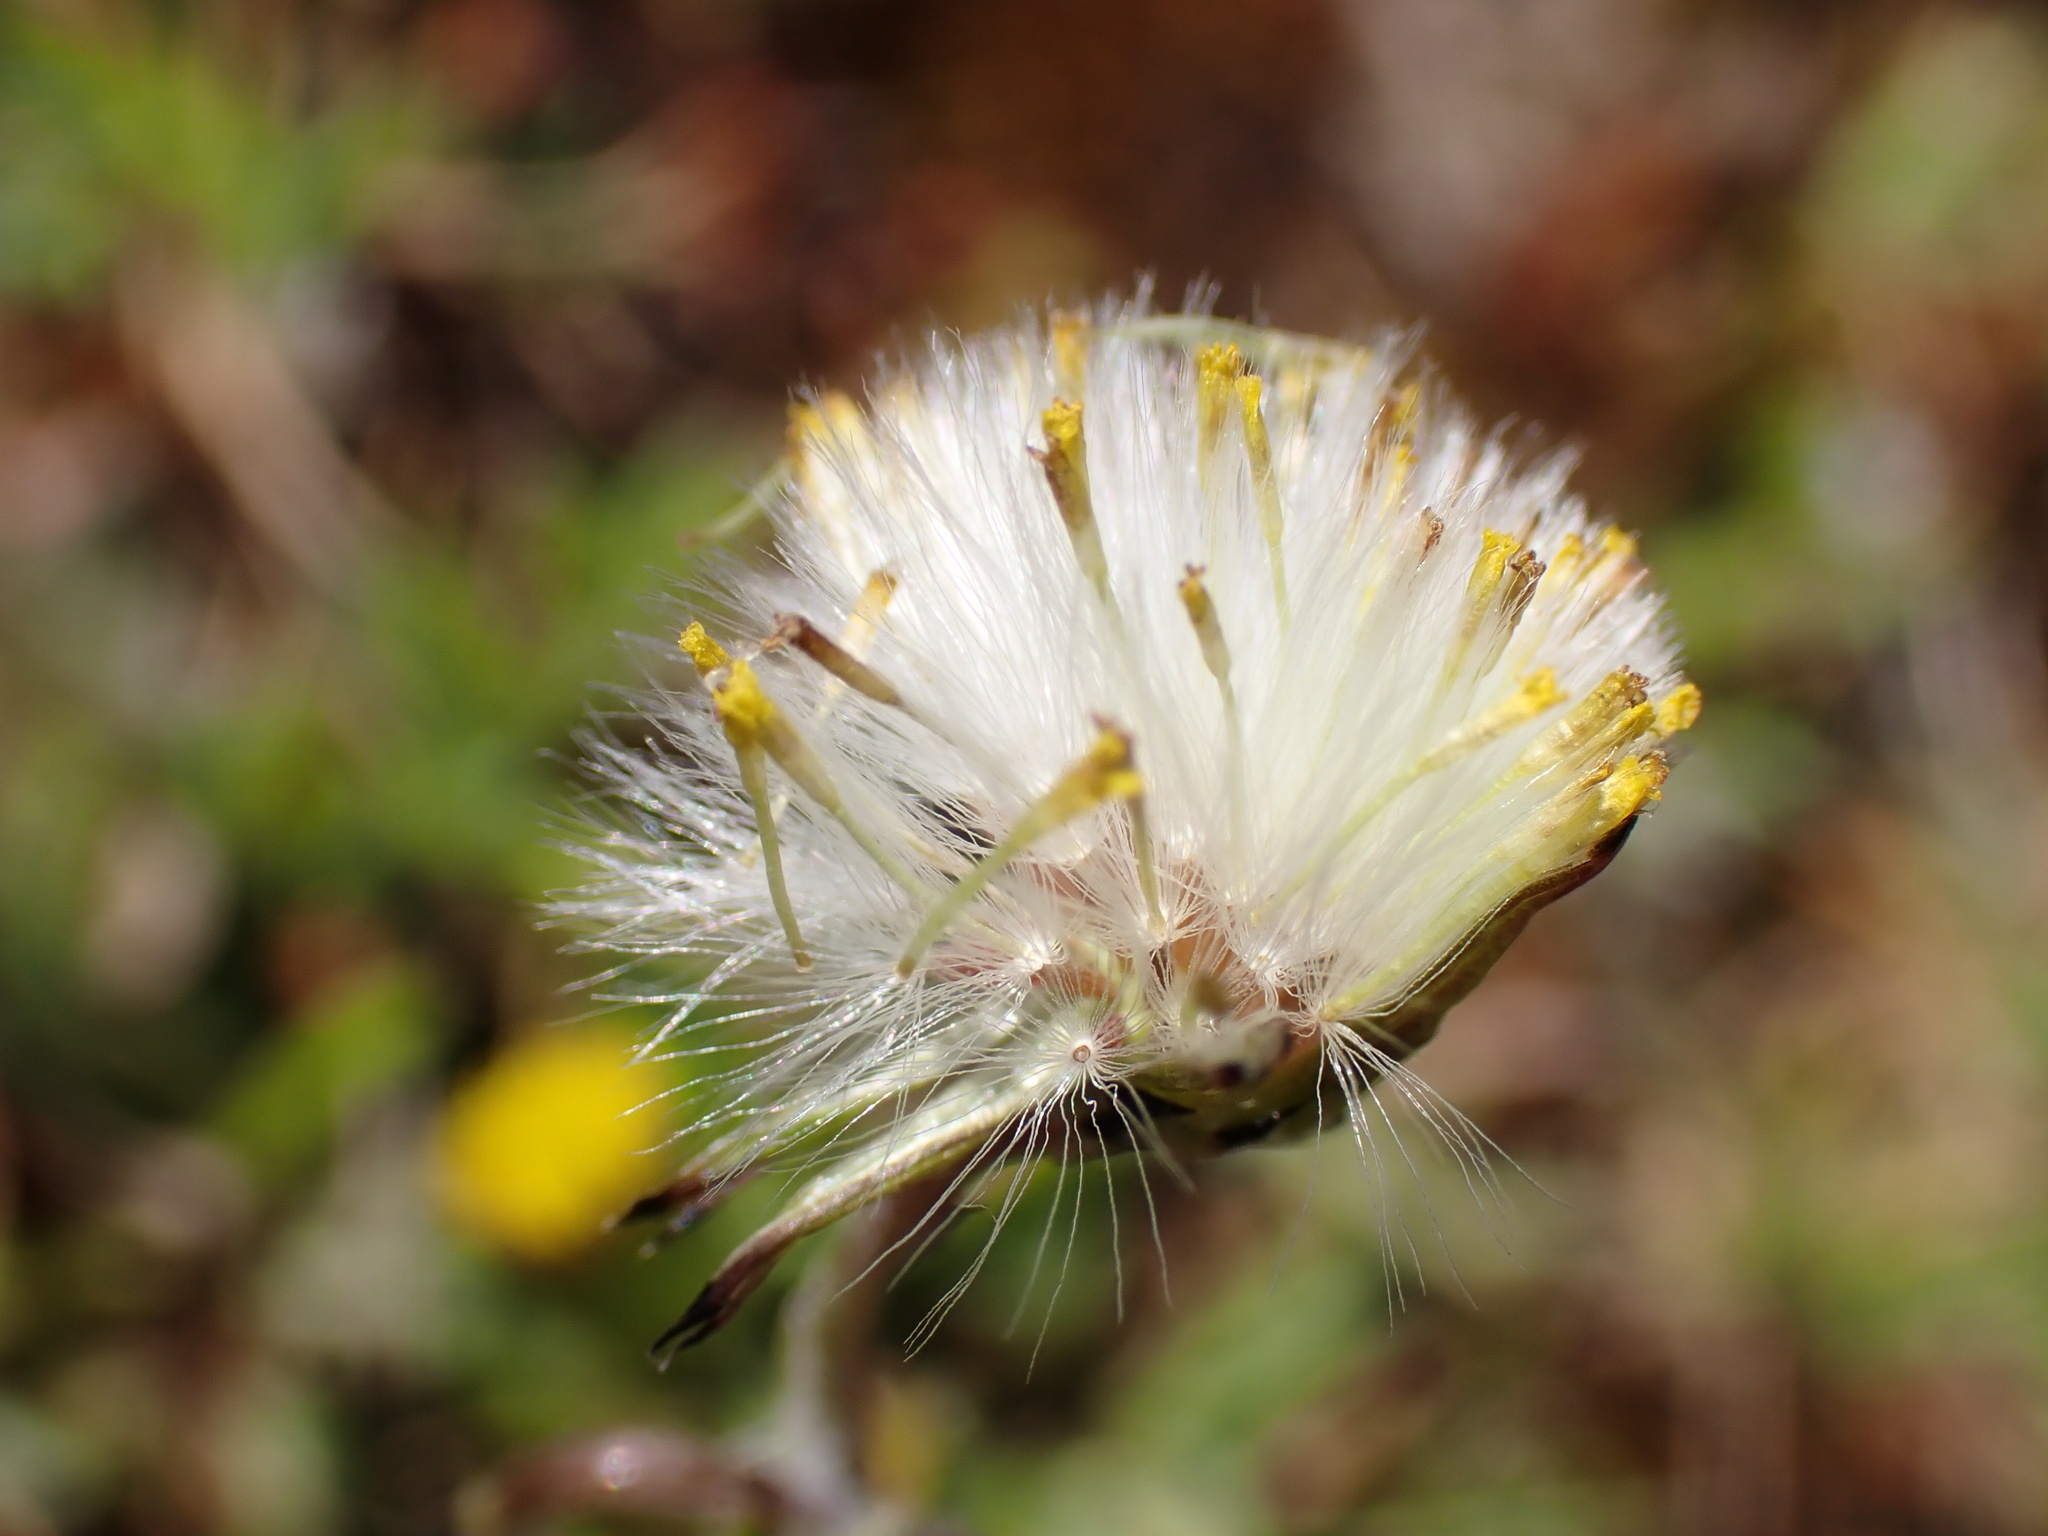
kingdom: Plantae
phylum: Tracheophyta
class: Magnoliopsida
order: Asterales
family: Asteraceae
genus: Senecio
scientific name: Senecio vulgaris
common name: Old-man-in-the-spring
